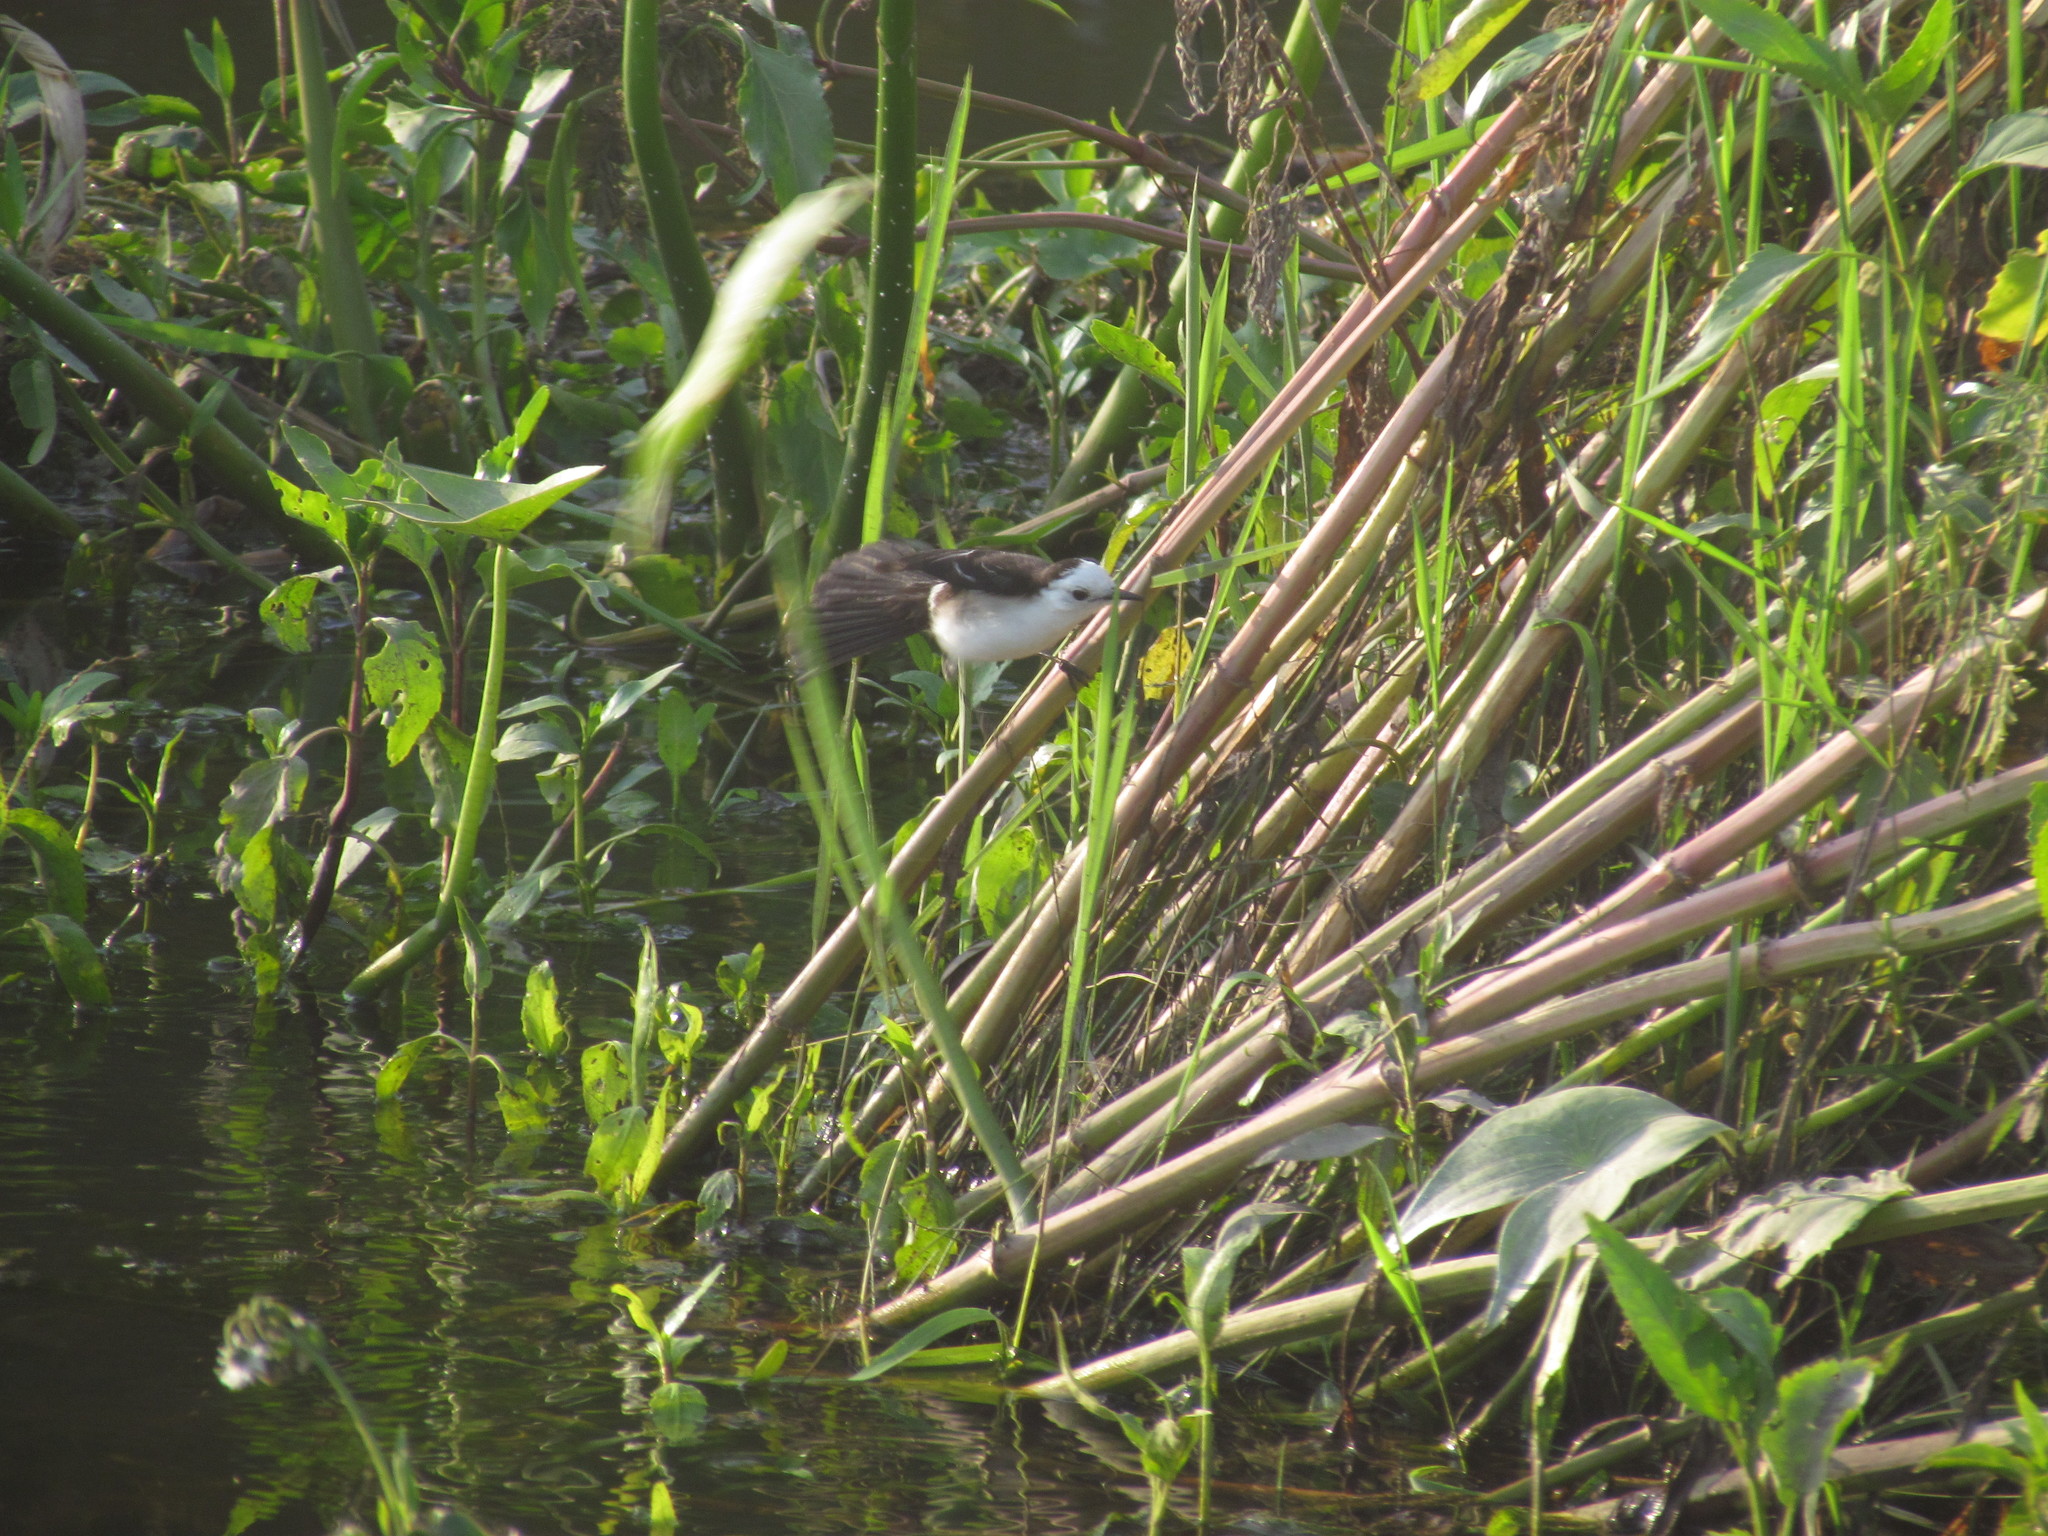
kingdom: Animalia
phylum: Chordata
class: Aves
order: Passeriformes
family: Tyrannidae
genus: Fluvicola
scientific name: Fluvicola pica
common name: Pied water-tyrant
